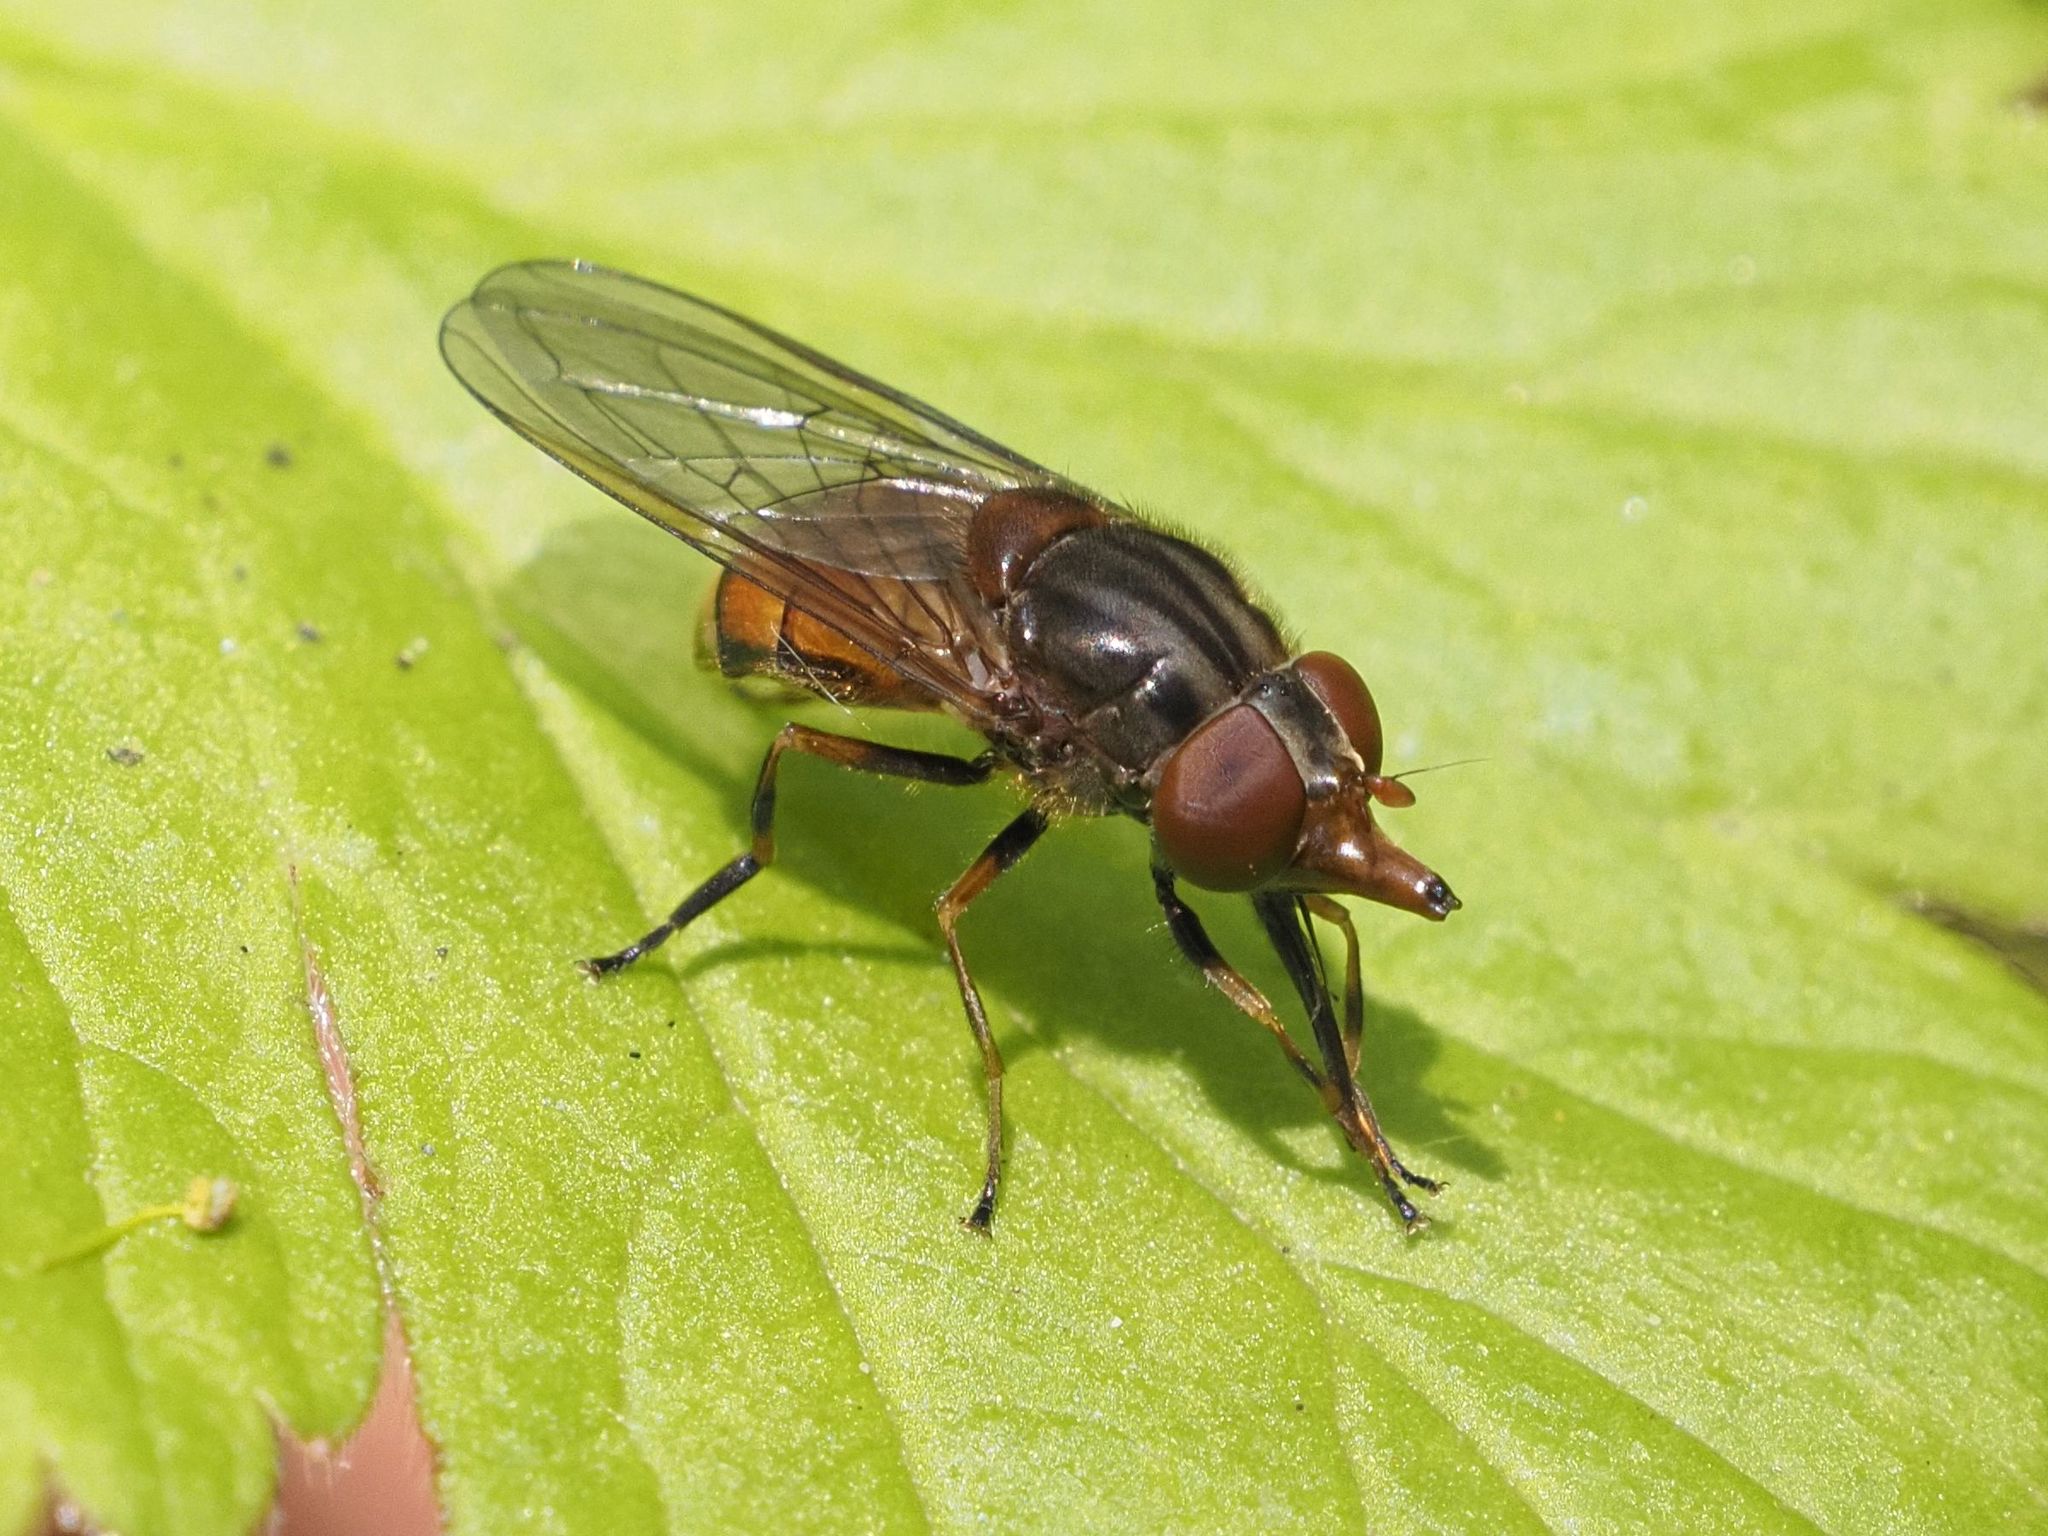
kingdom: Animalia
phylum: Arthropoda
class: Insecta
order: Diptera
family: Syrphidae
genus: Rhingia
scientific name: Rhingia campestris
